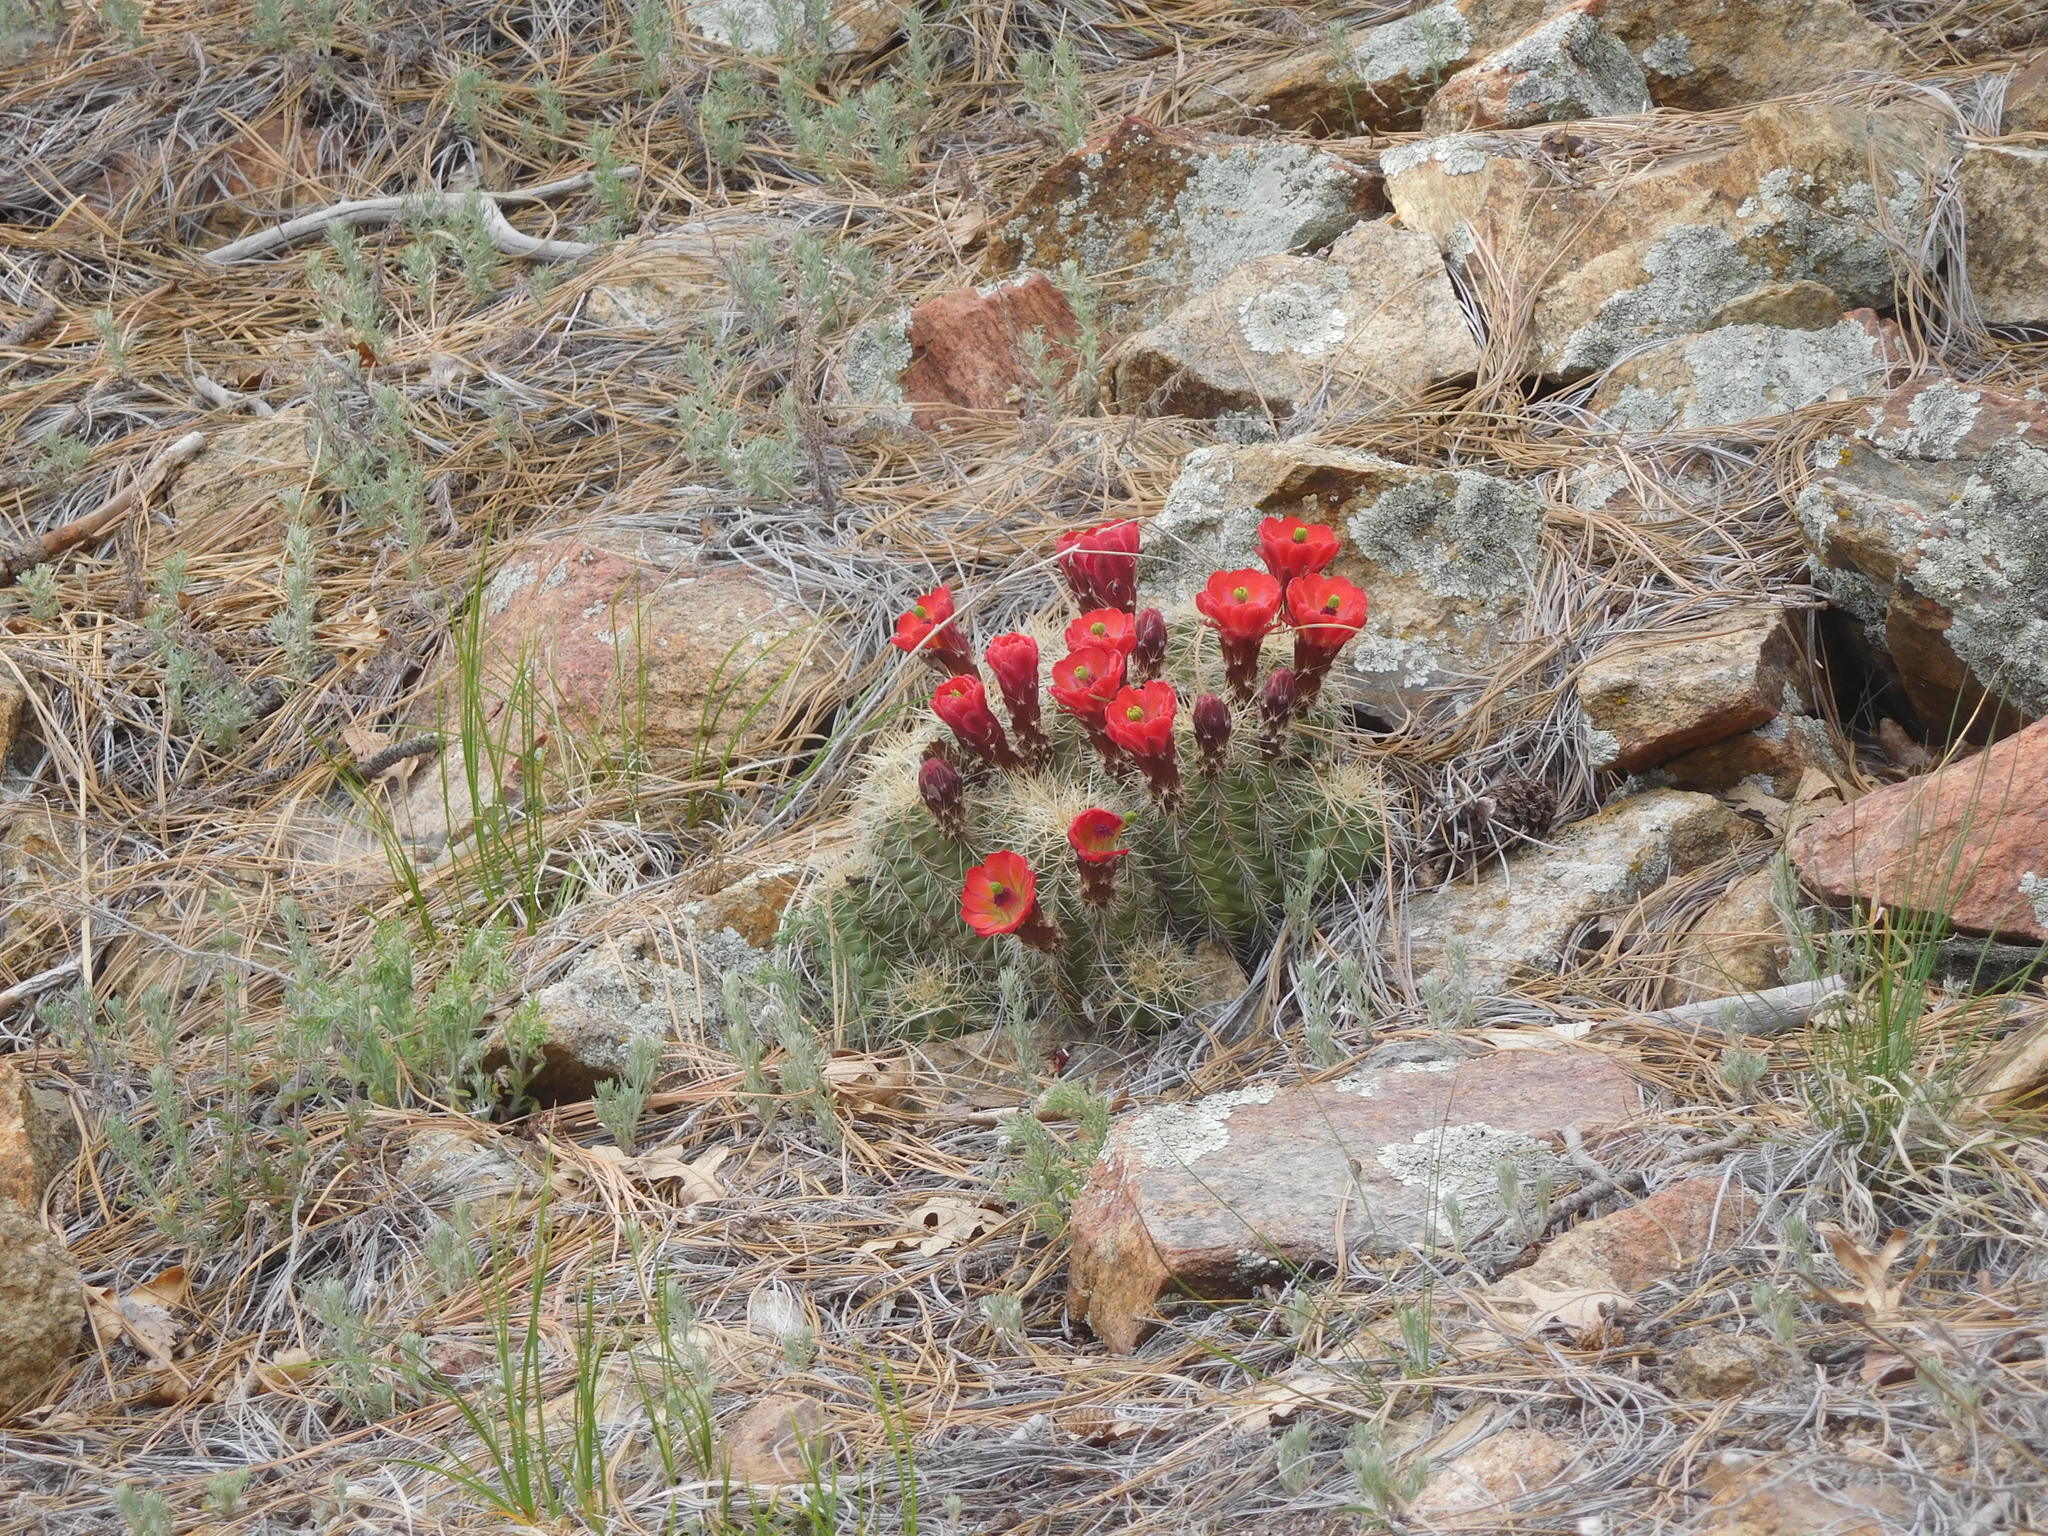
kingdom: Plantae
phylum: Tracheophyta
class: Magnoliopsida
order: Caryophyllales
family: Cactaceae
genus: Echinocereus
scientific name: Echinocereus bakeri
